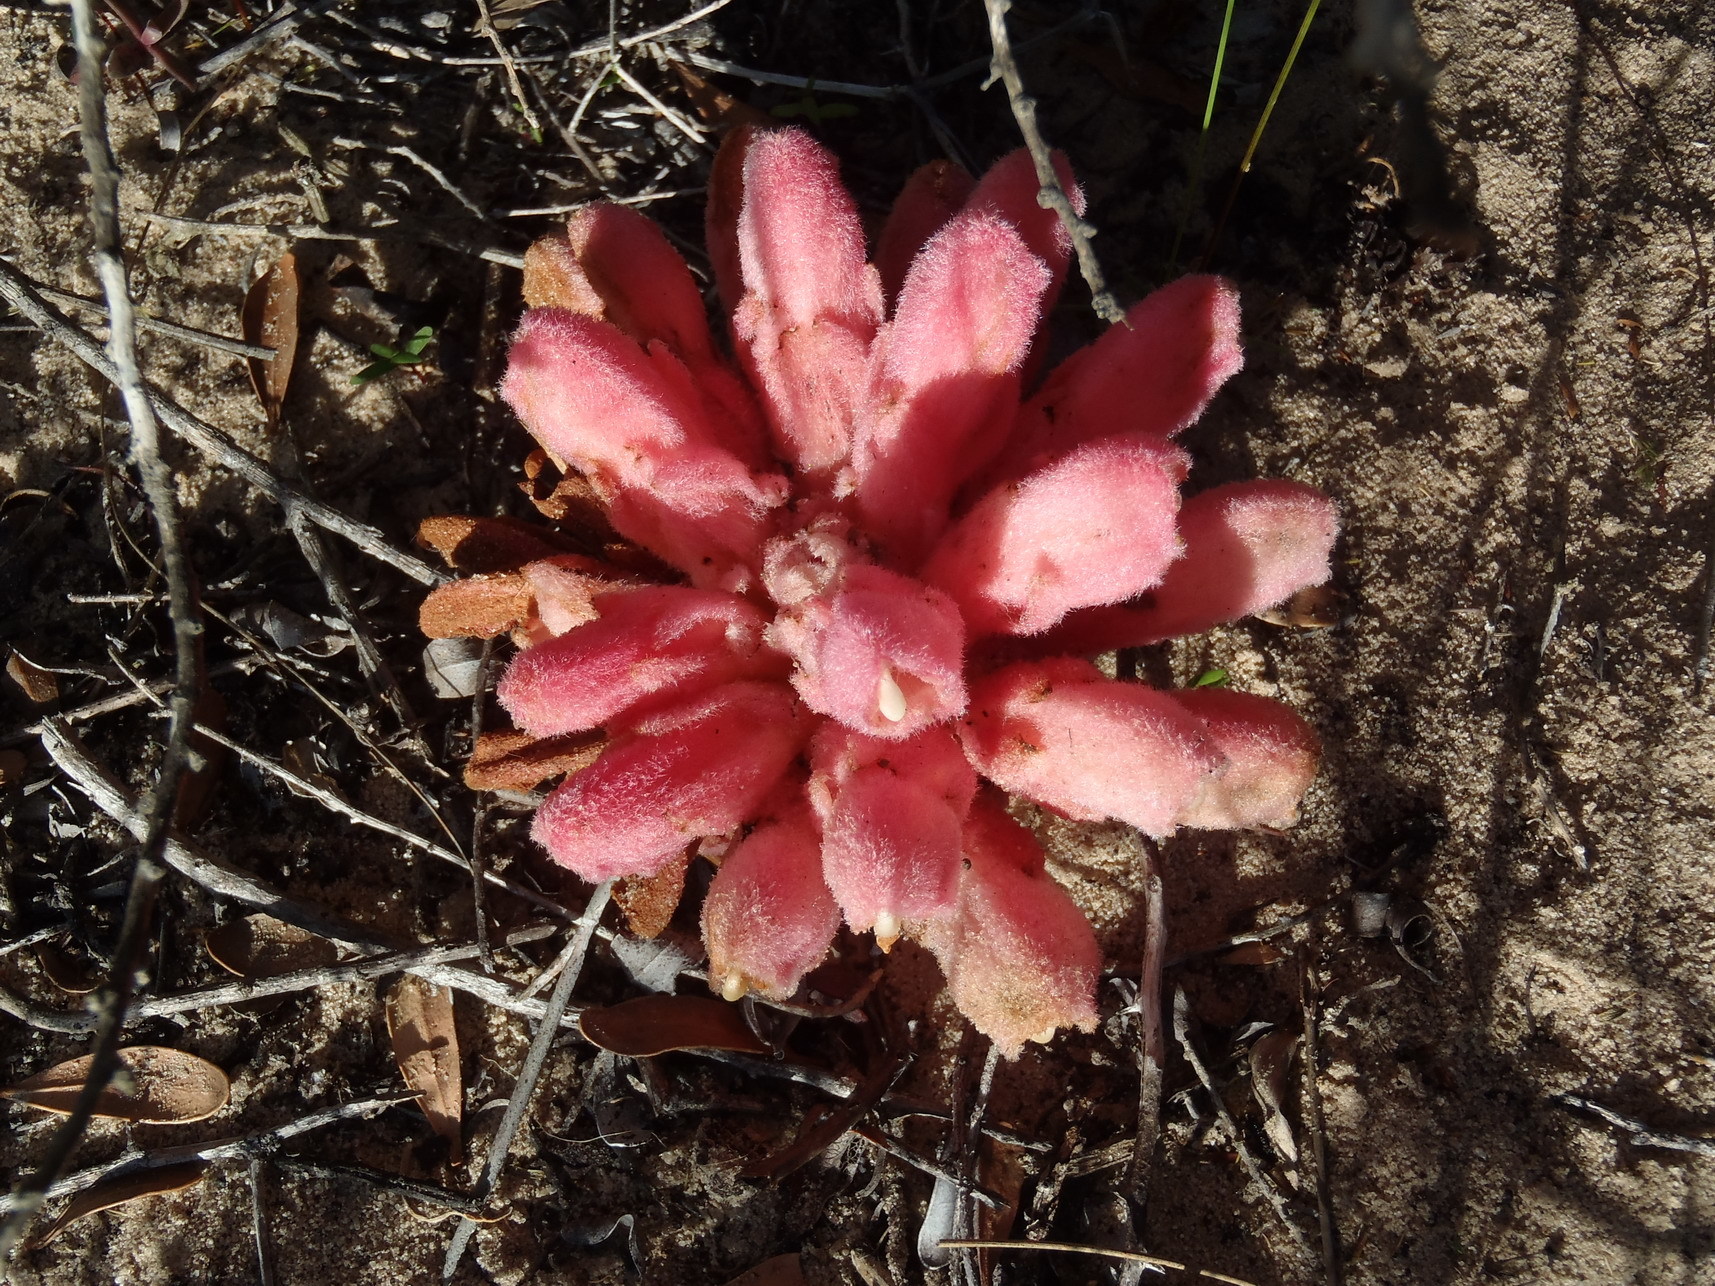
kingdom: Plantae
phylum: Tracheophyta
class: Magnoliopsida
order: Lamiales
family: Orobanchaceae
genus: Hyobanche
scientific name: Hyobanche sanguinea
